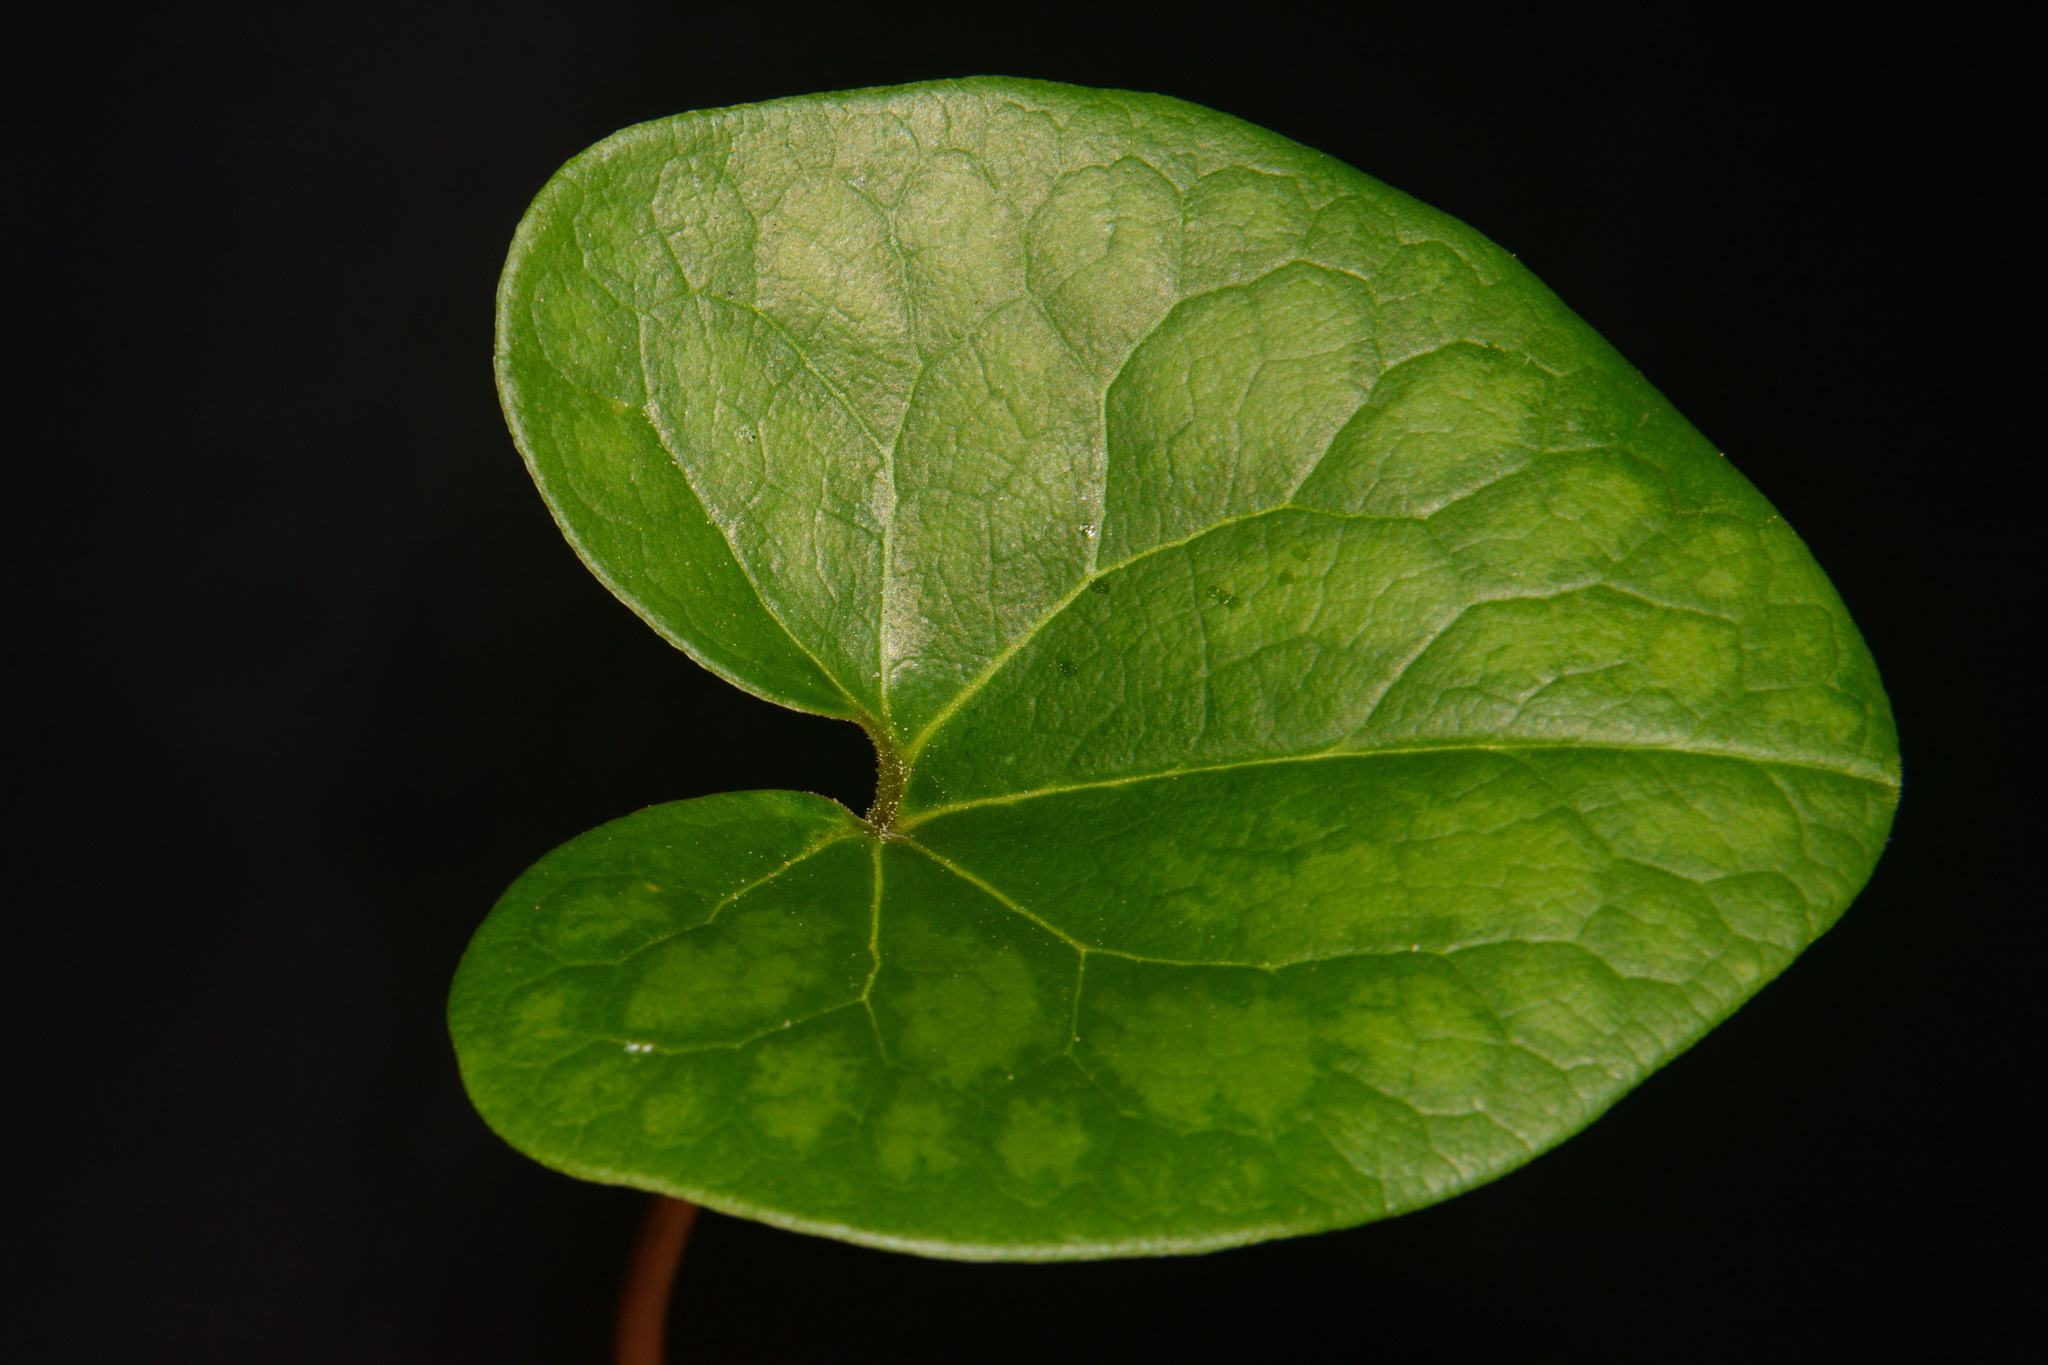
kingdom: Plantae
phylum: Tracheophyta
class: Magnoliopsida
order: Piperales
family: Aristolochiaceae
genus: Hexastylis
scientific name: Hexastylis contracta
